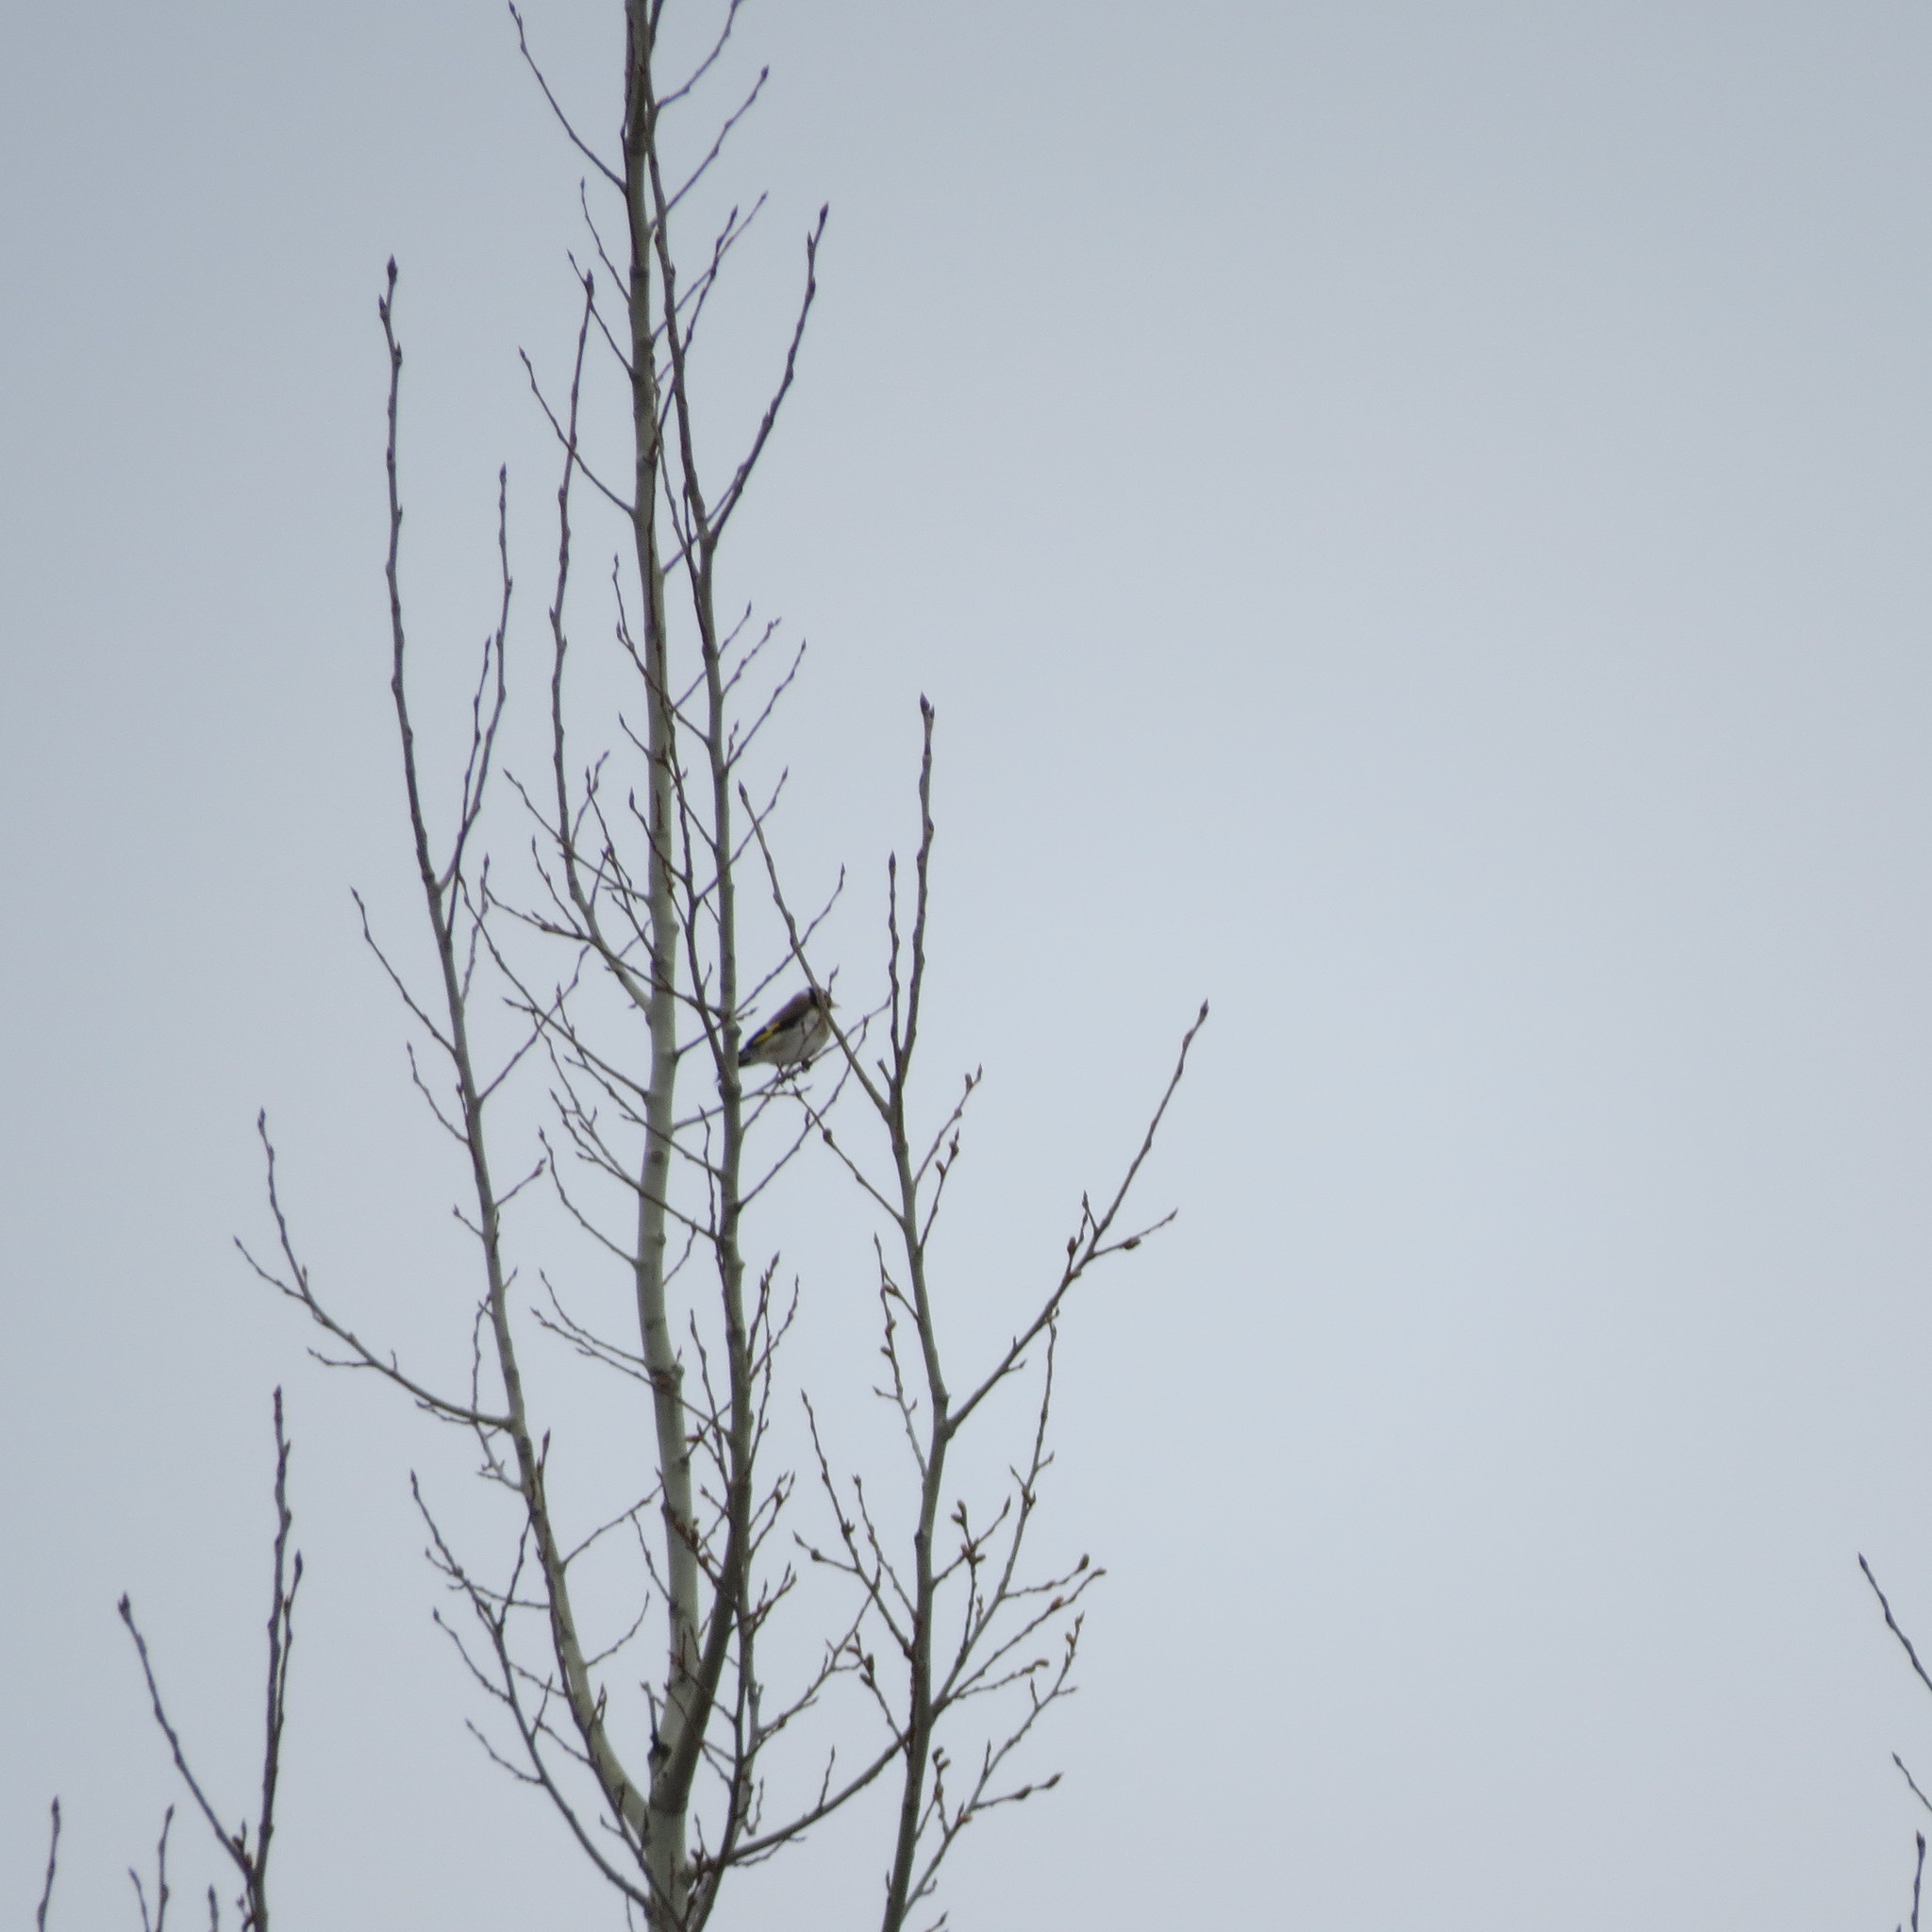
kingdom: Animalia
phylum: Chordata
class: Aves
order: Passeriformes
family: Fringillidae
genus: Carduelis
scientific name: Carduelis carduelis
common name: European goldfinch
